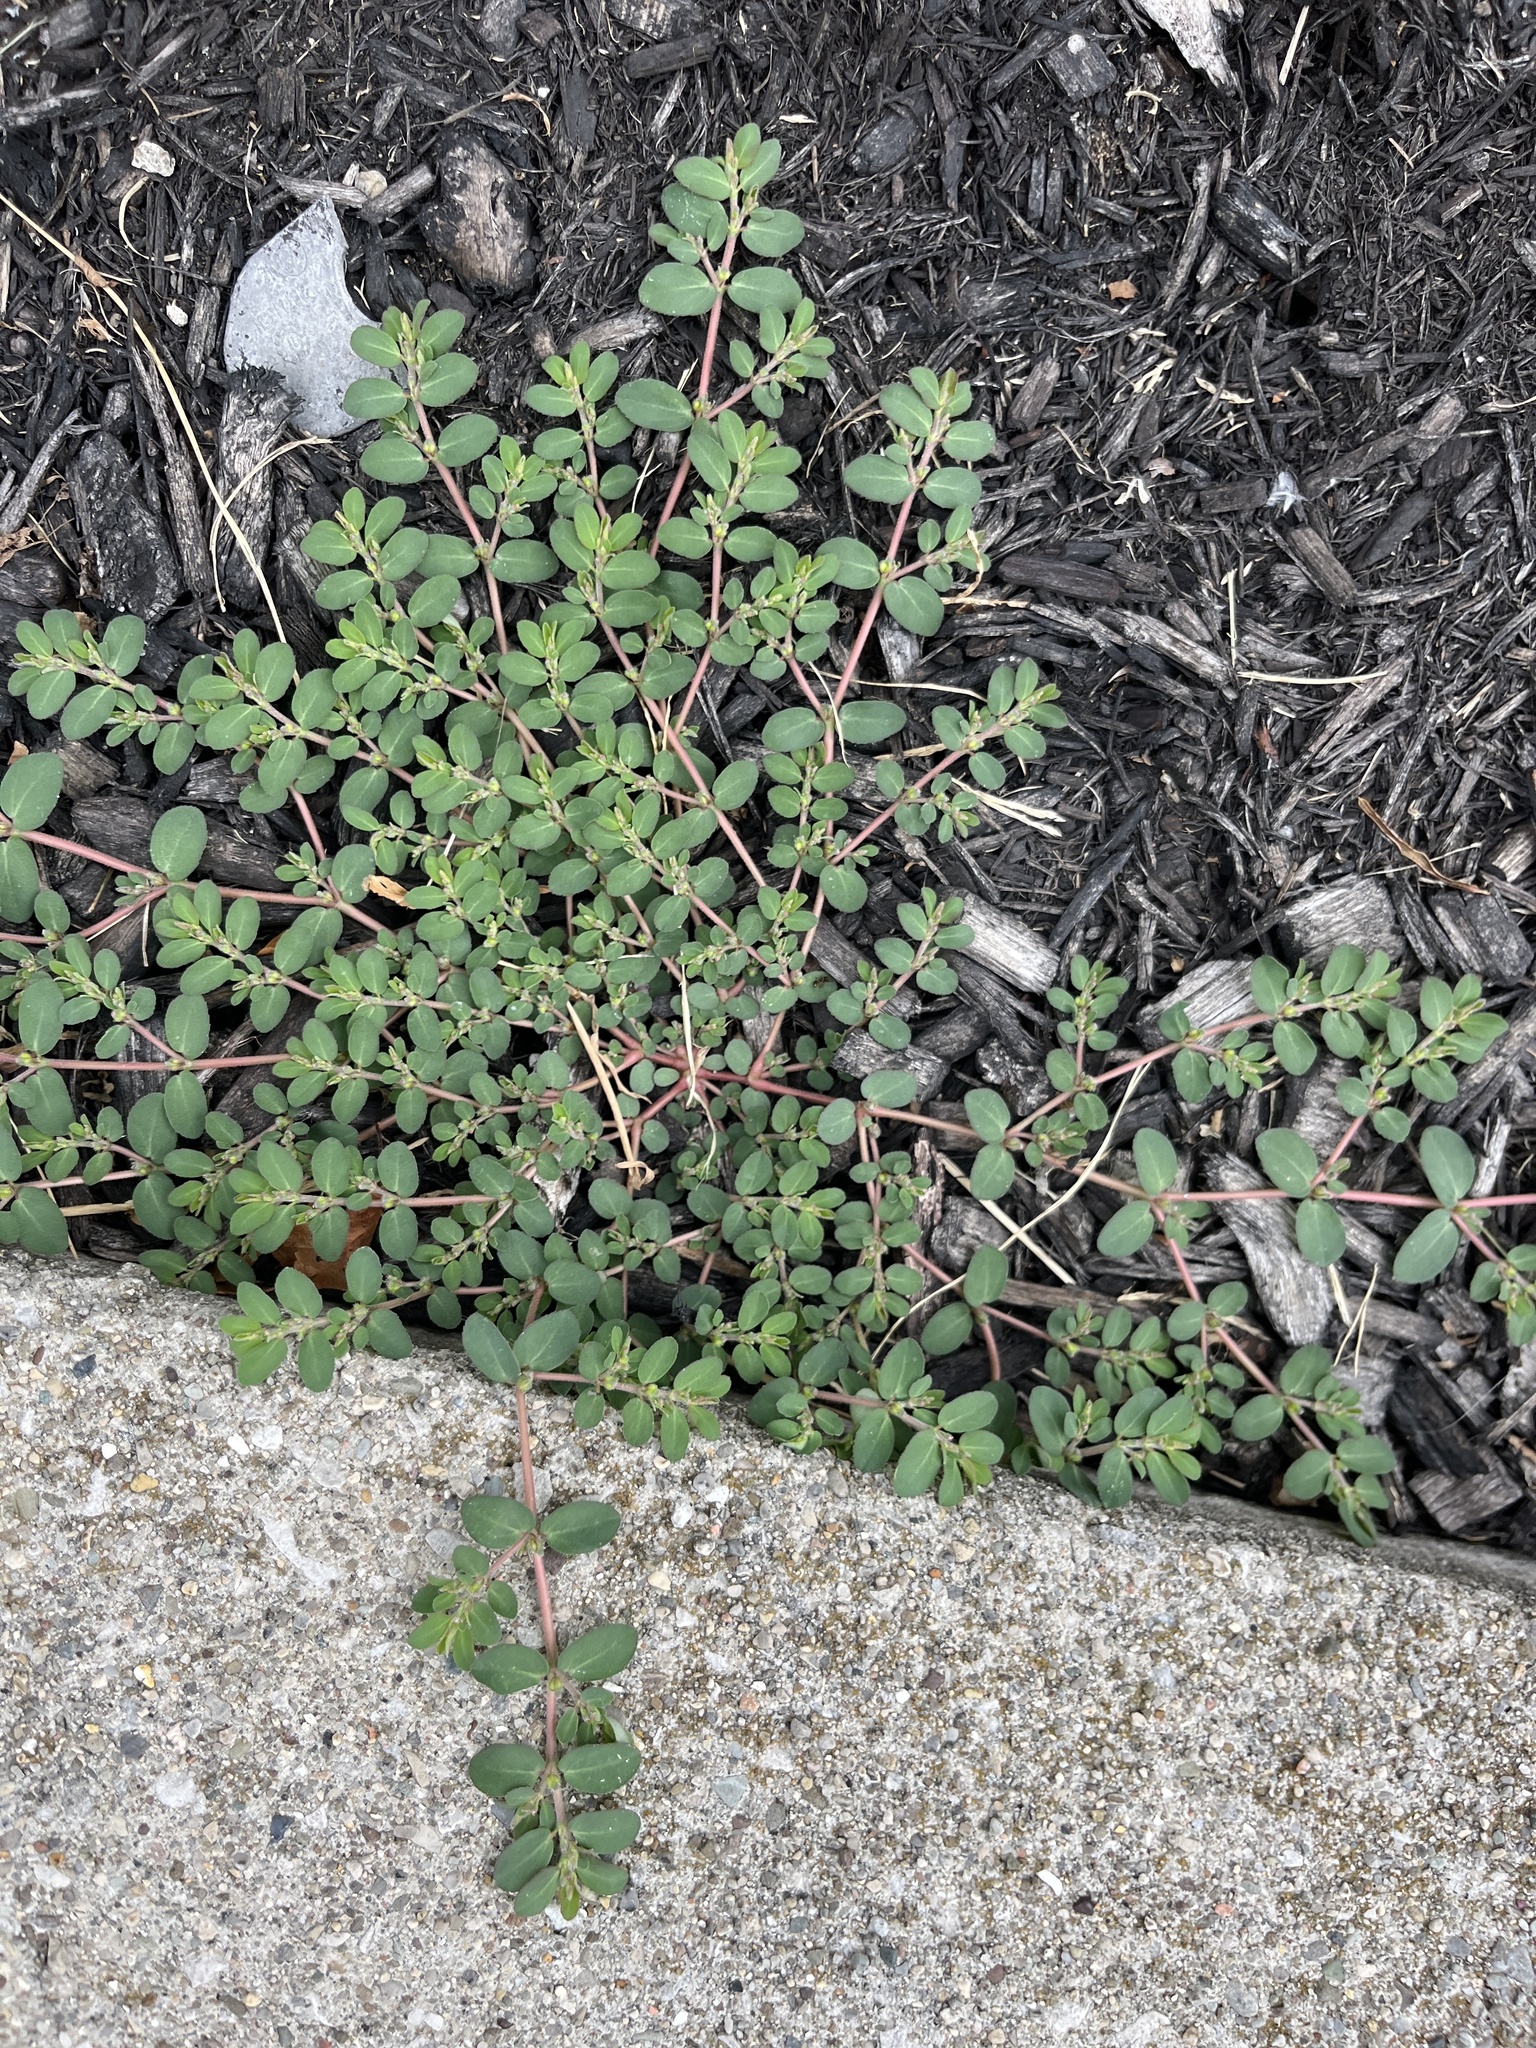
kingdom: Plantae
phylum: Tracheophyta
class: Magnoliopsida
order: Malpighiales
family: Euphorbiaceae
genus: Euphorbia
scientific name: Euphorbia prostrata
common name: Prostrate sandmat
